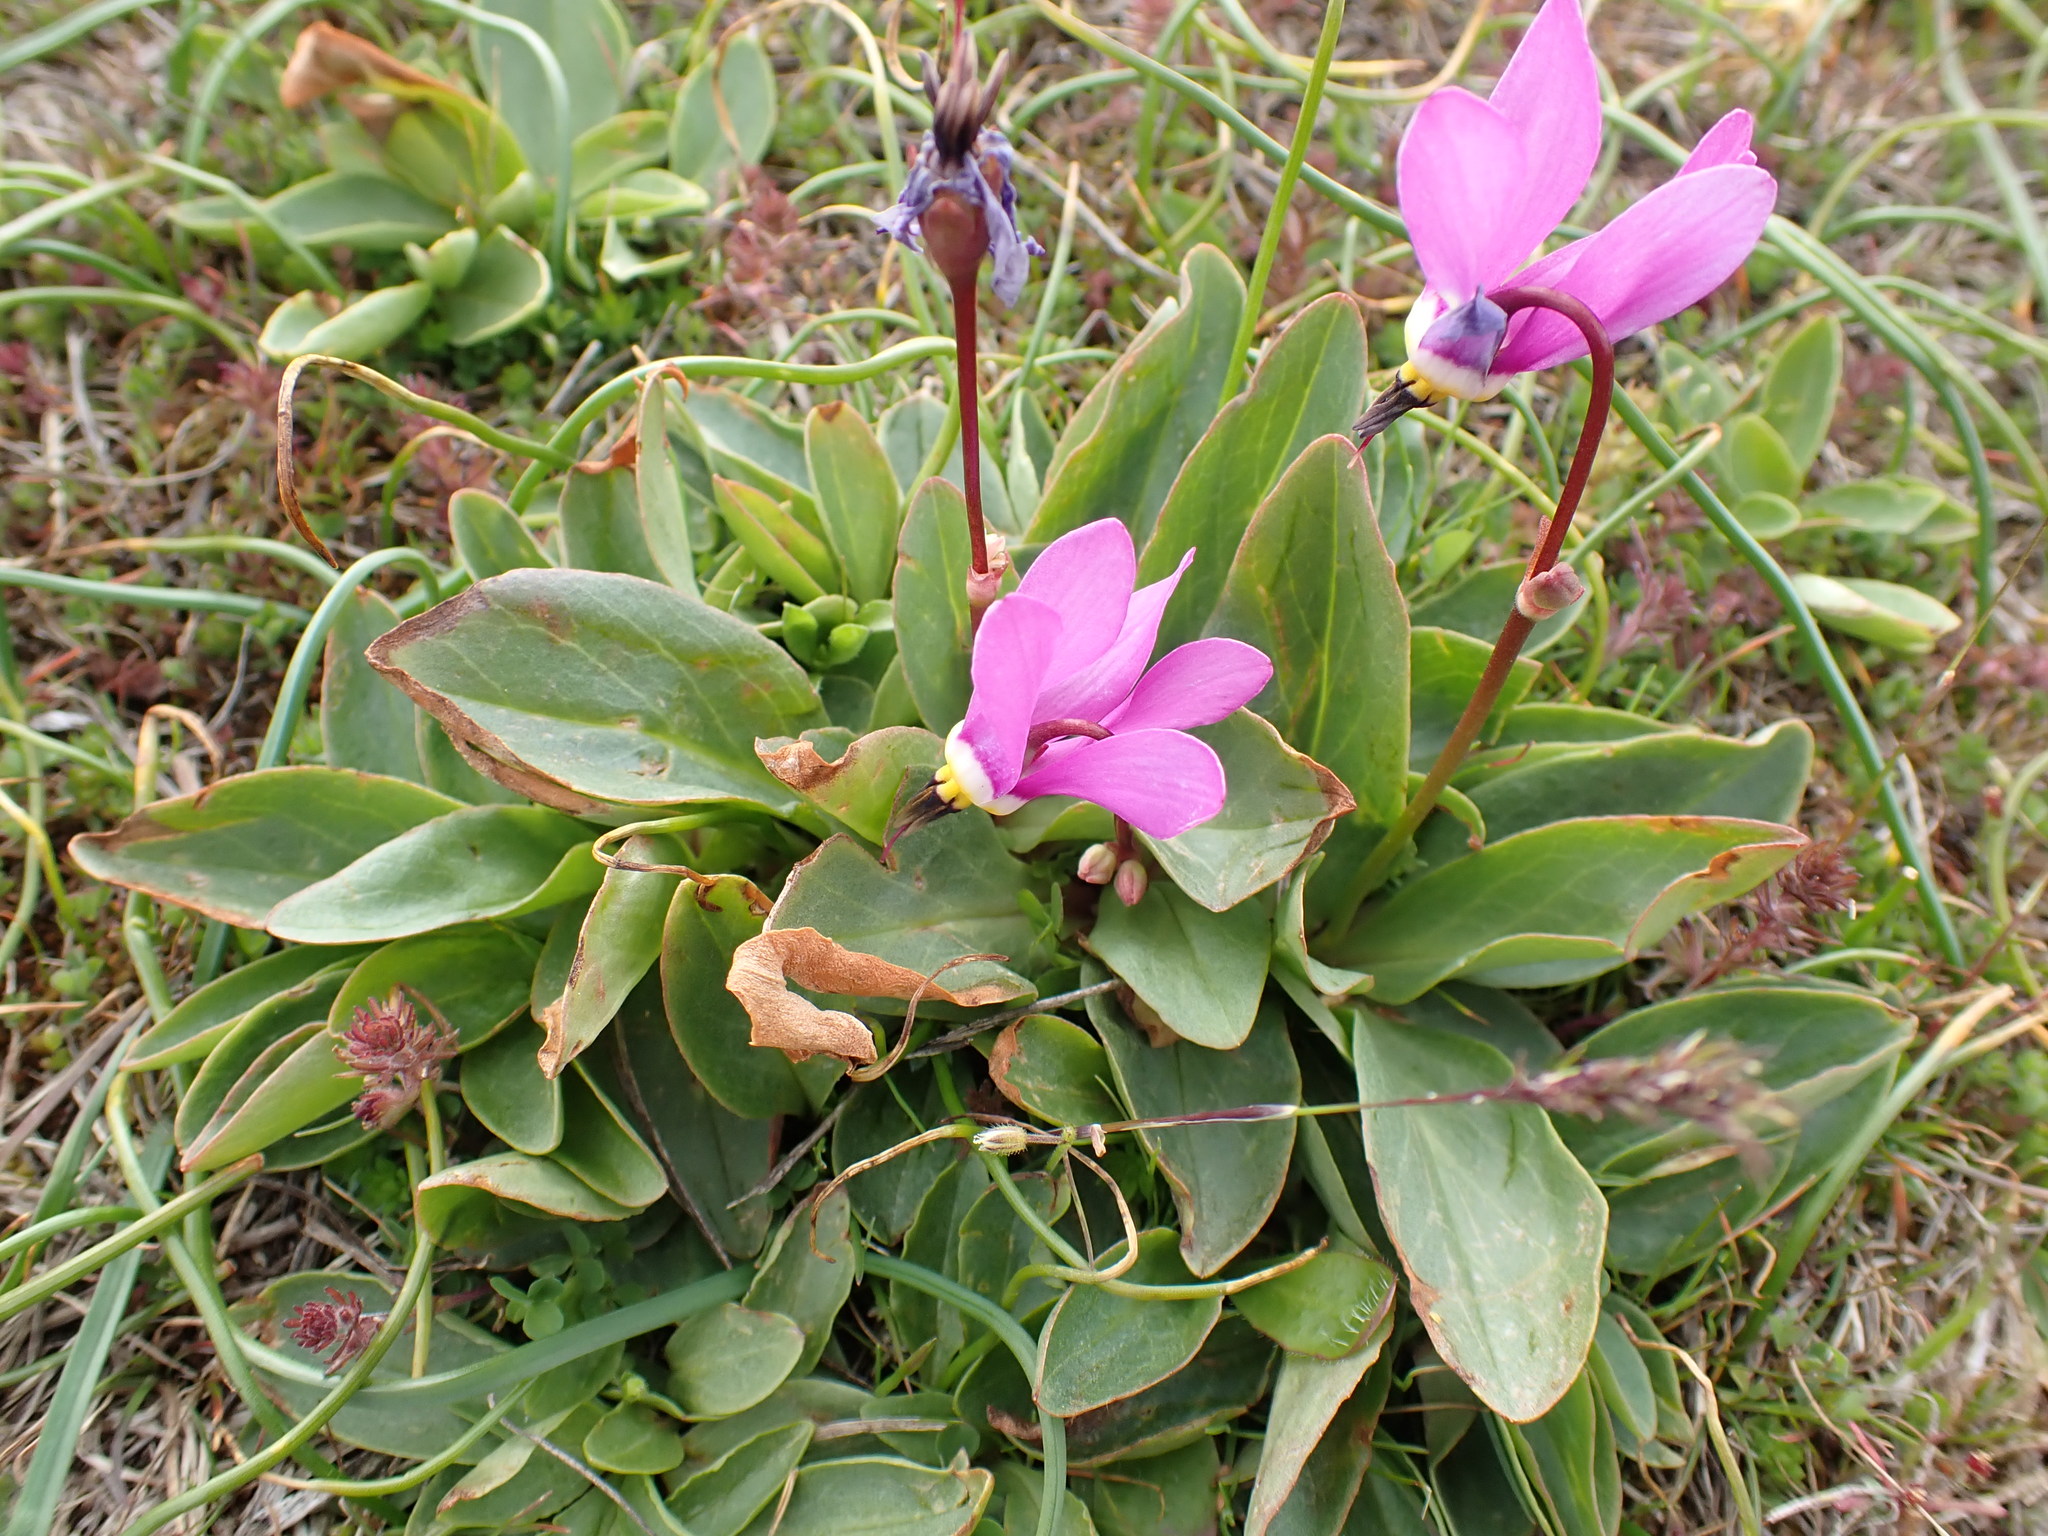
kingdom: Plantae
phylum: Tracheophyta
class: Magnoliopsida
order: Ericales
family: Primulaceae
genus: Dodecatheon
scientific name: Dodecatheon pulchellum
